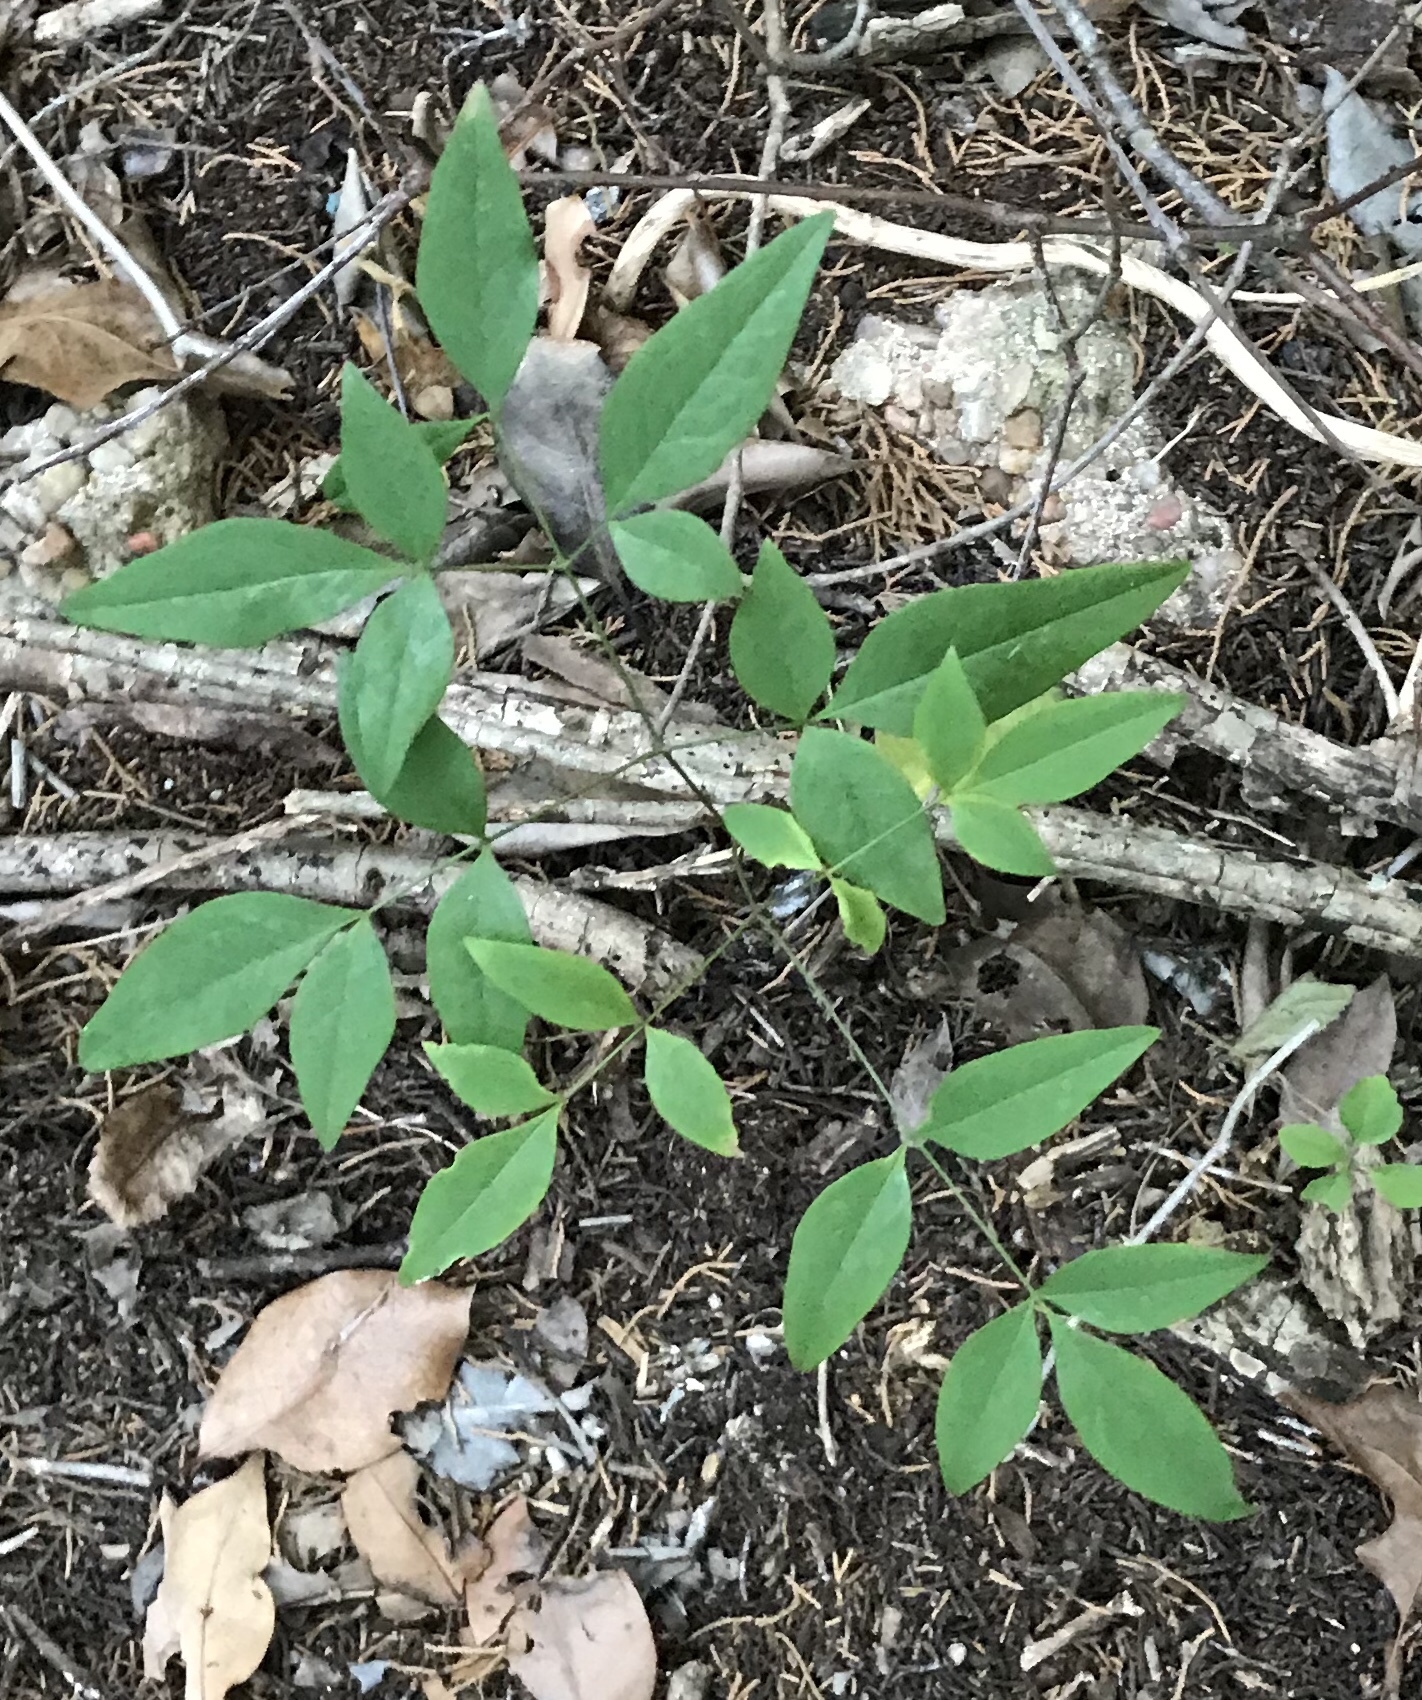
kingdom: Plantae
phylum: Tracheophyta
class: Magnoliopsida
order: Ranunculales
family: Berberidaceae
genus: Nandina
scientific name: Nandina domestica
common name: Sacred bamboo
